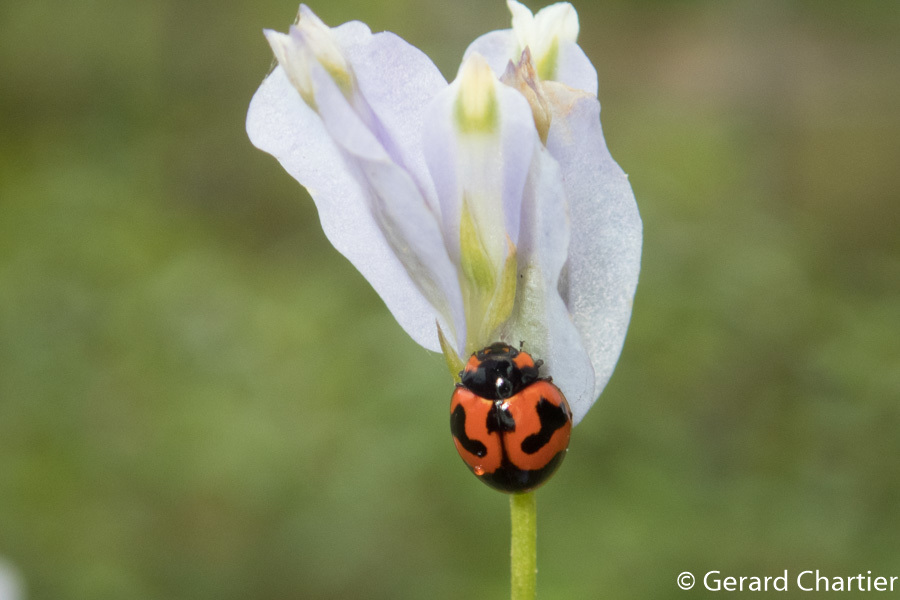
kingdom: Animalia
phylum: Arthropoda
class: Insecta
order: Coleoptera
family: Coccinellidae
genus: Coccinella
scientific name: Coccinella transversalis
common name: Transverse lady beetle
